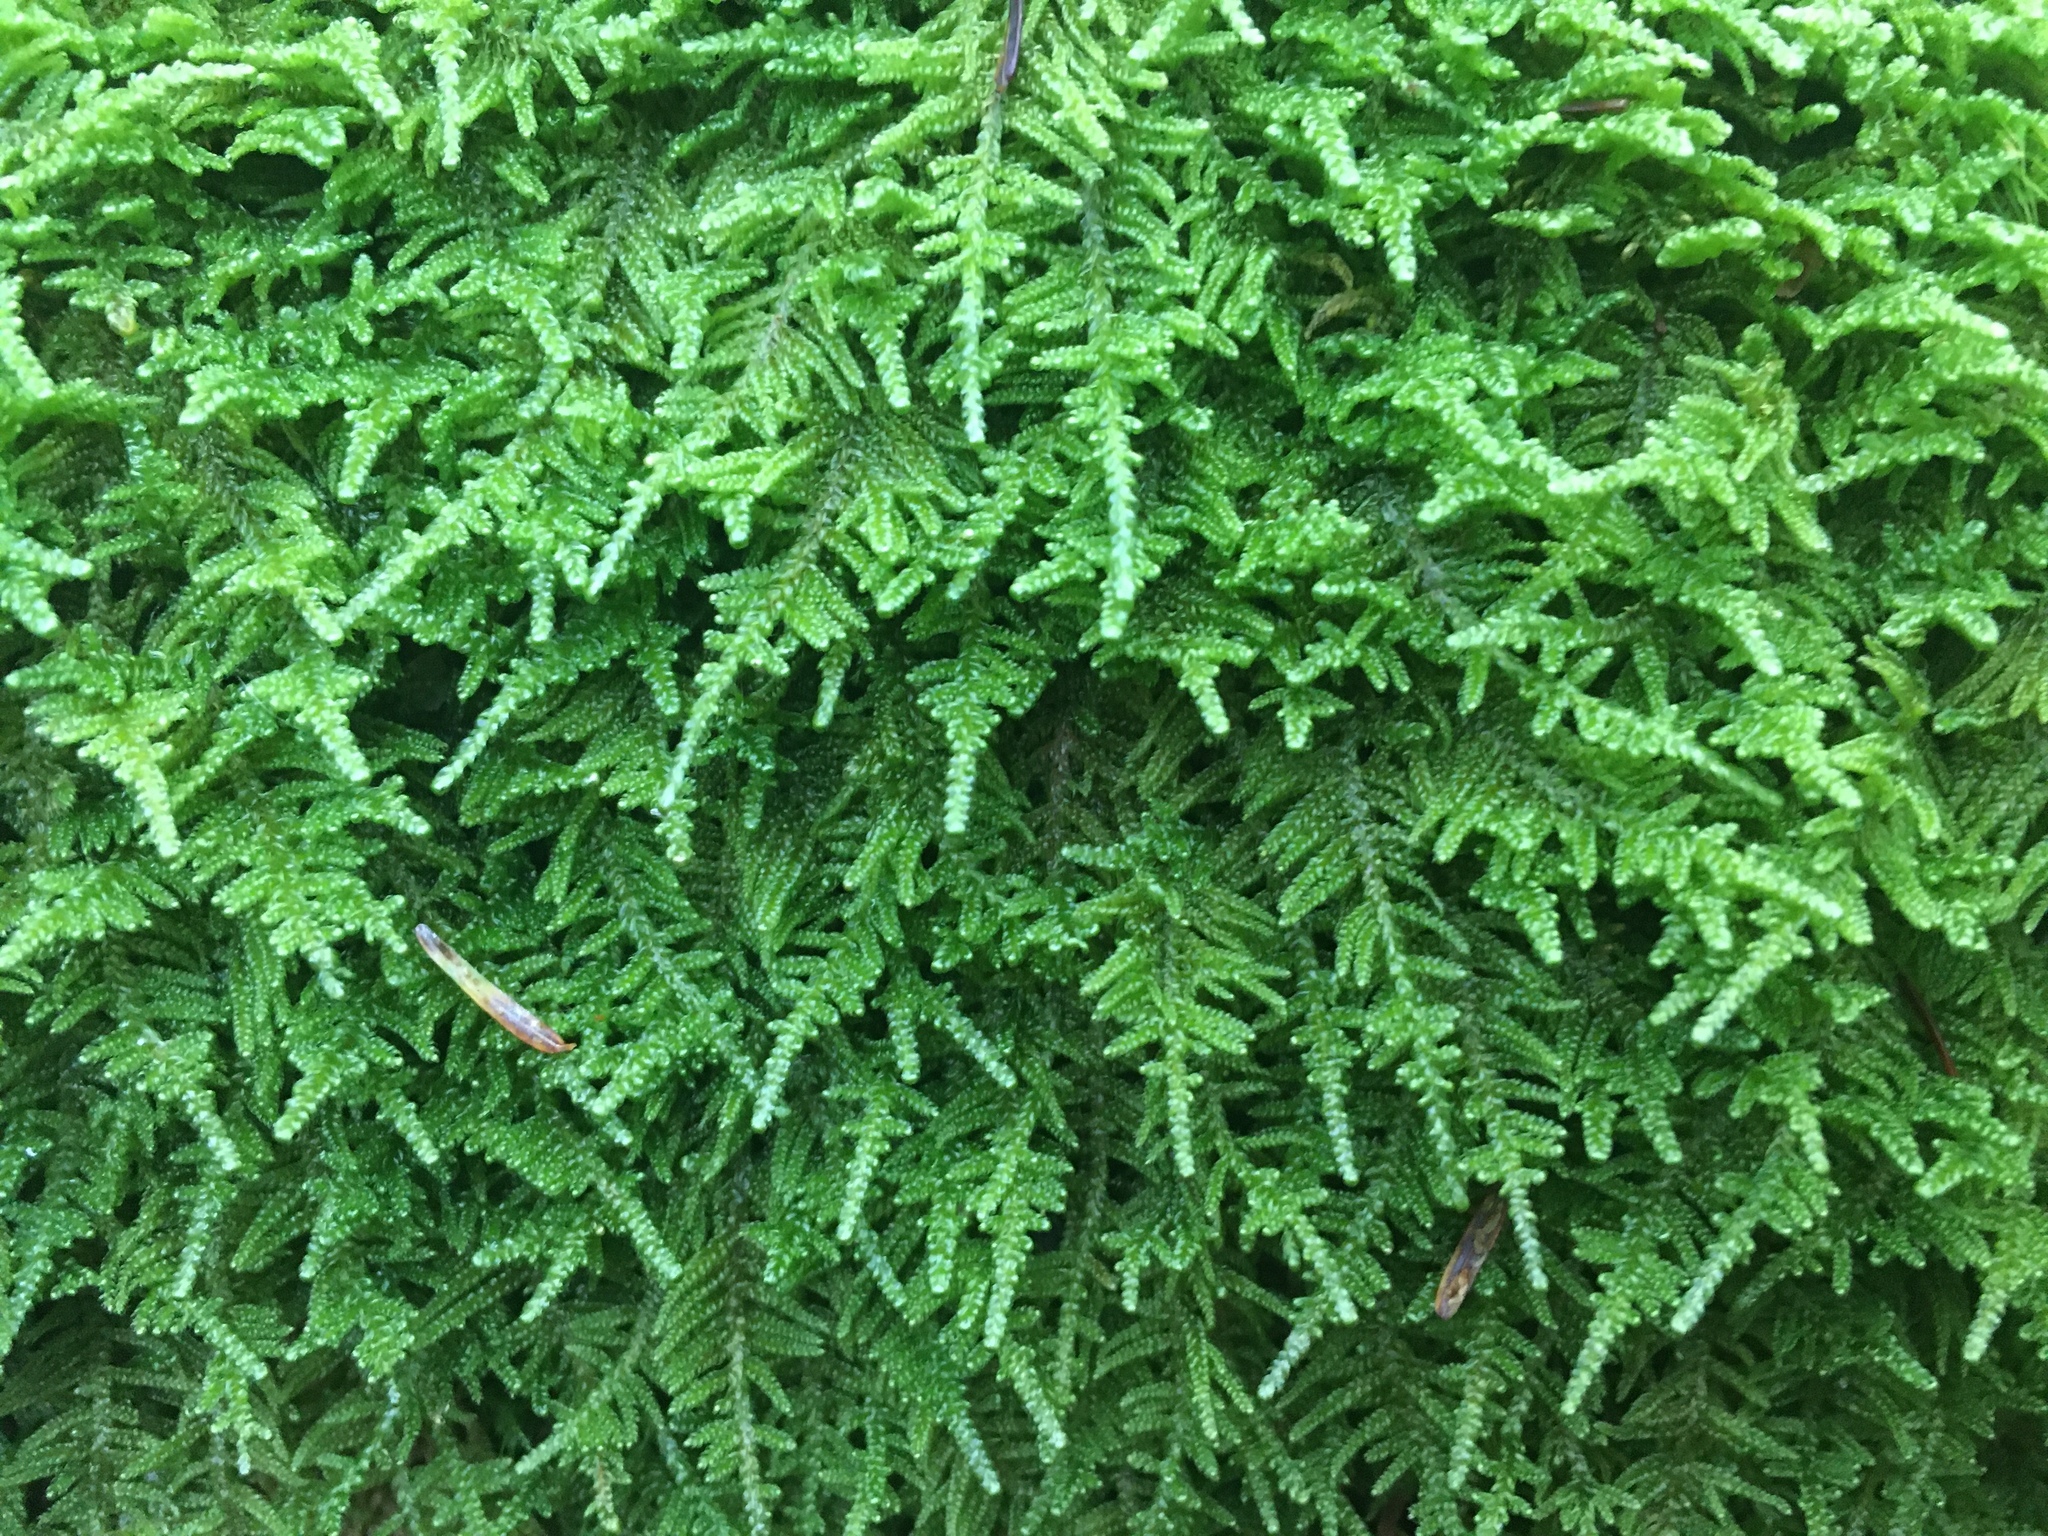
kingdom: Plantae
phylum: Bryophyta
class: Bryopsida
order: Hypnales
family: Callicladiaceae
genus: Callicladium
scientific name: Callicladium imponens
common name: Brocade moss
